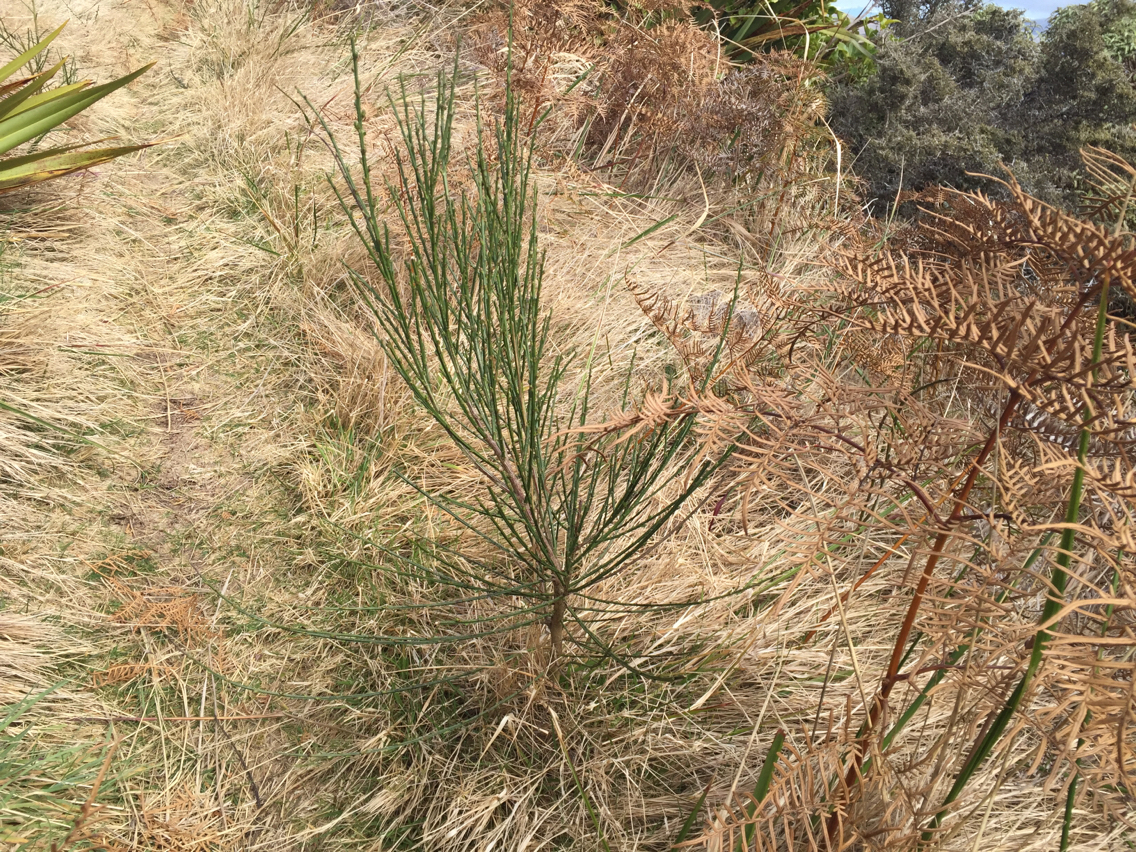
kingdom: Plantae
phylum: Tracheophyta
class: Magnoliopsida
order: Fabales
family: Fabaceae
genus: Cytisus
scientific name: Cytisus scoparius
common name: Scotch broom
